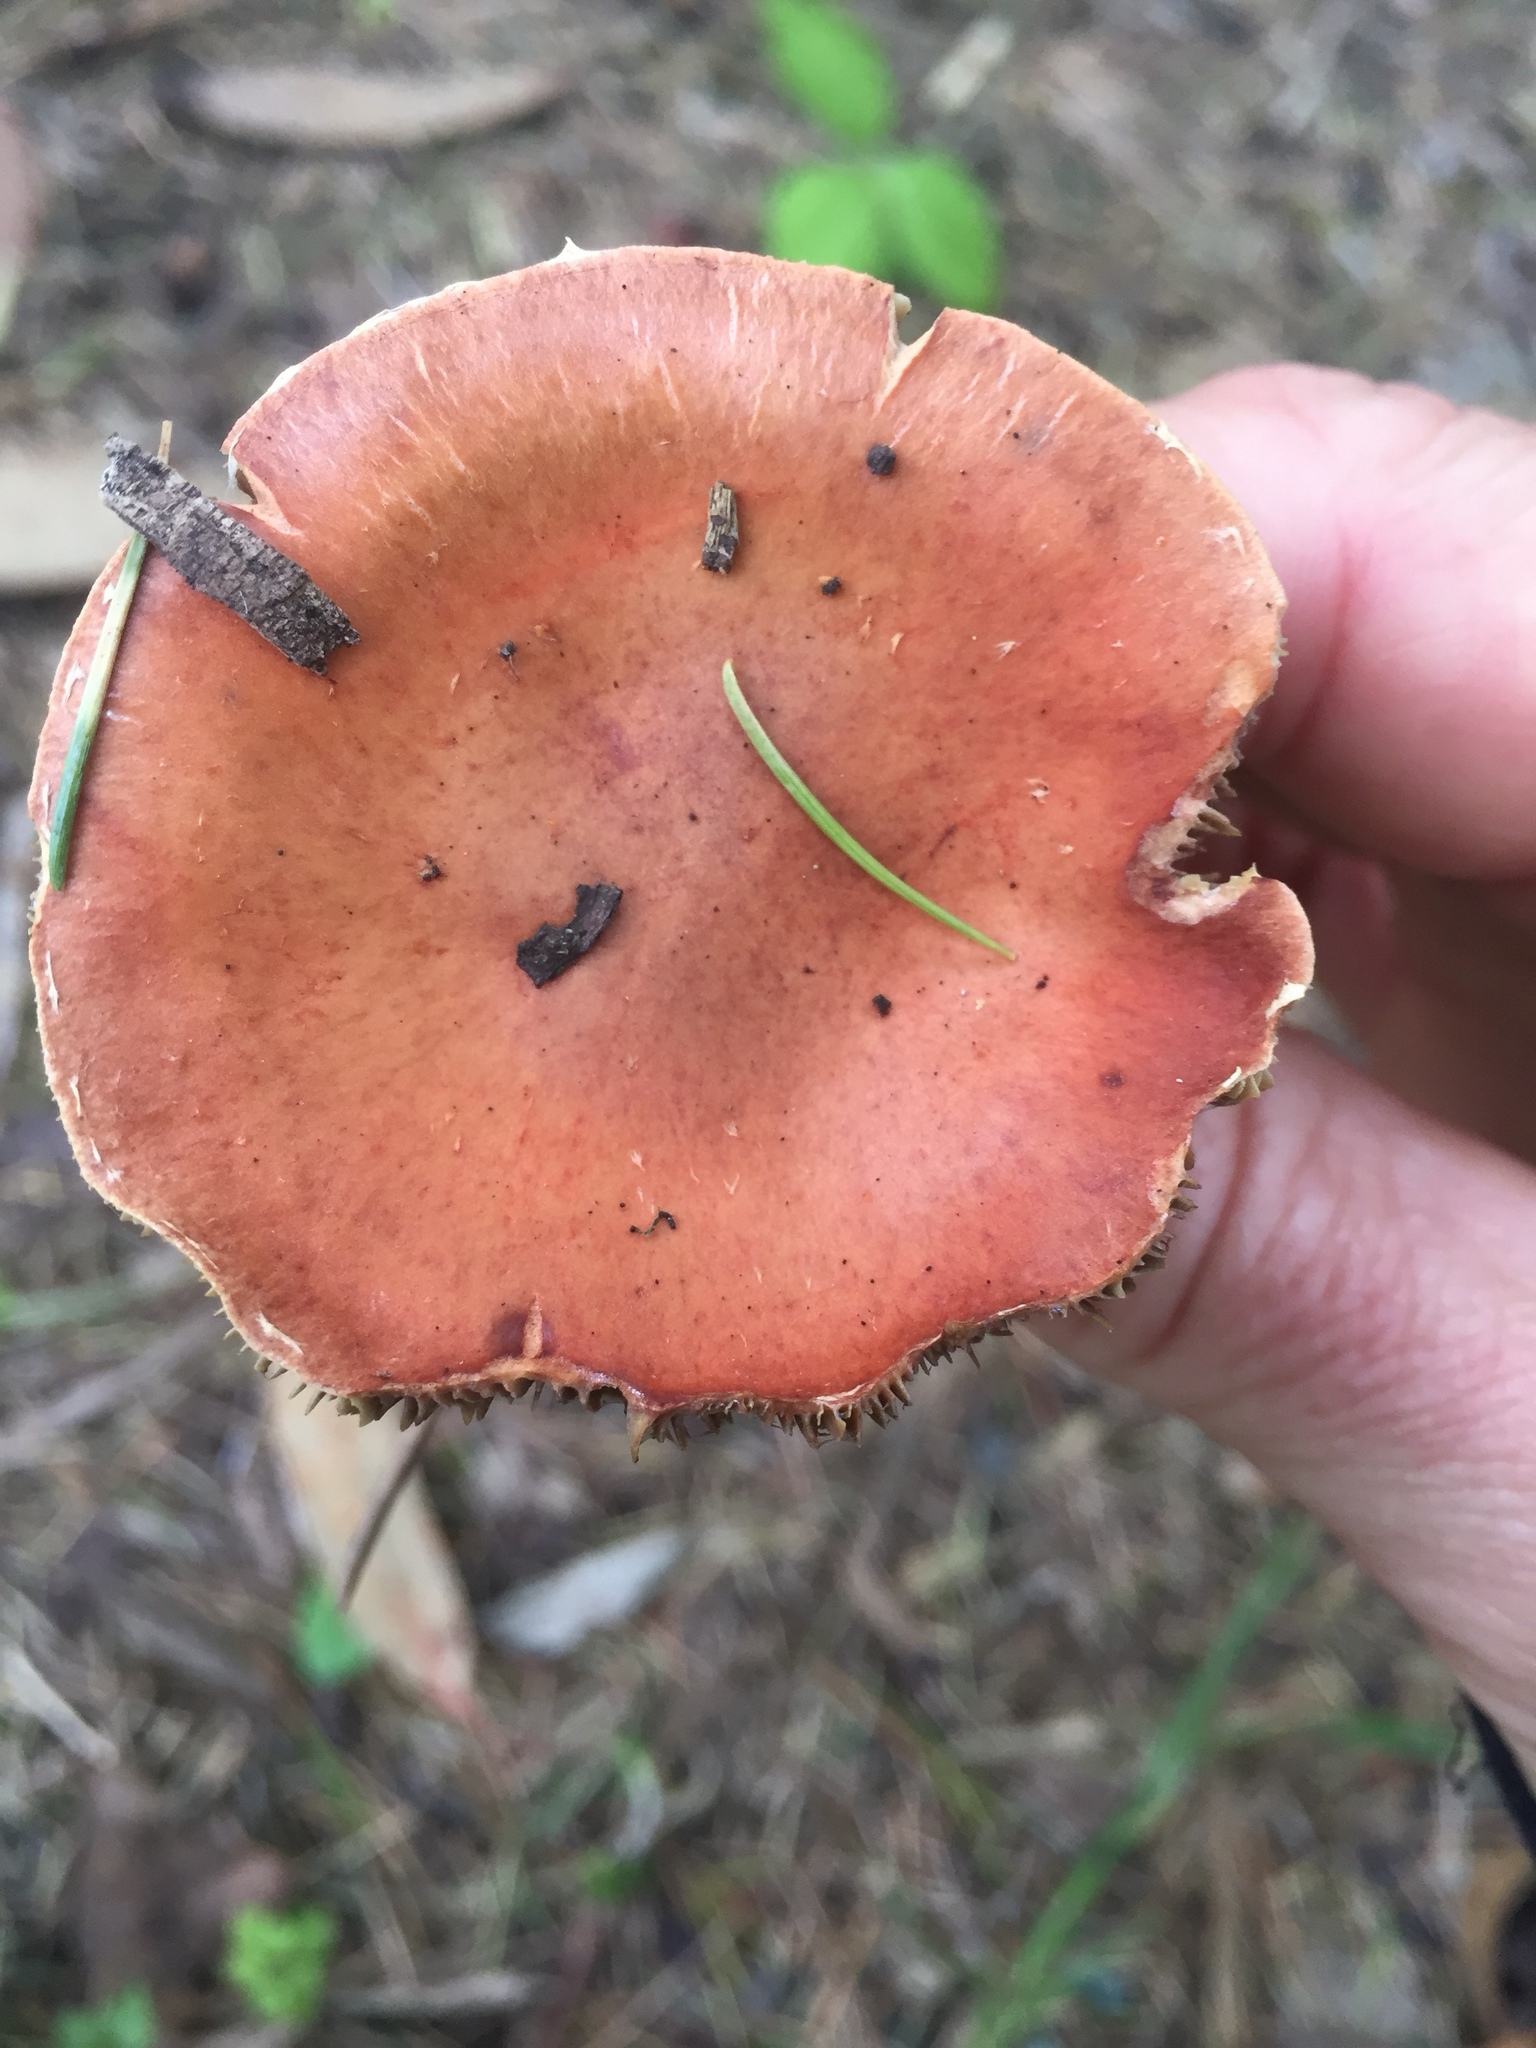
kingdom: Fungi
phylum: Basidiomycota
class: Agaricomycetes
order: Agaricales
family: Strophariaceae
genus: Leratiomyces
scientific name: Leratiomyces ceres
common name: Redlead roundhead
